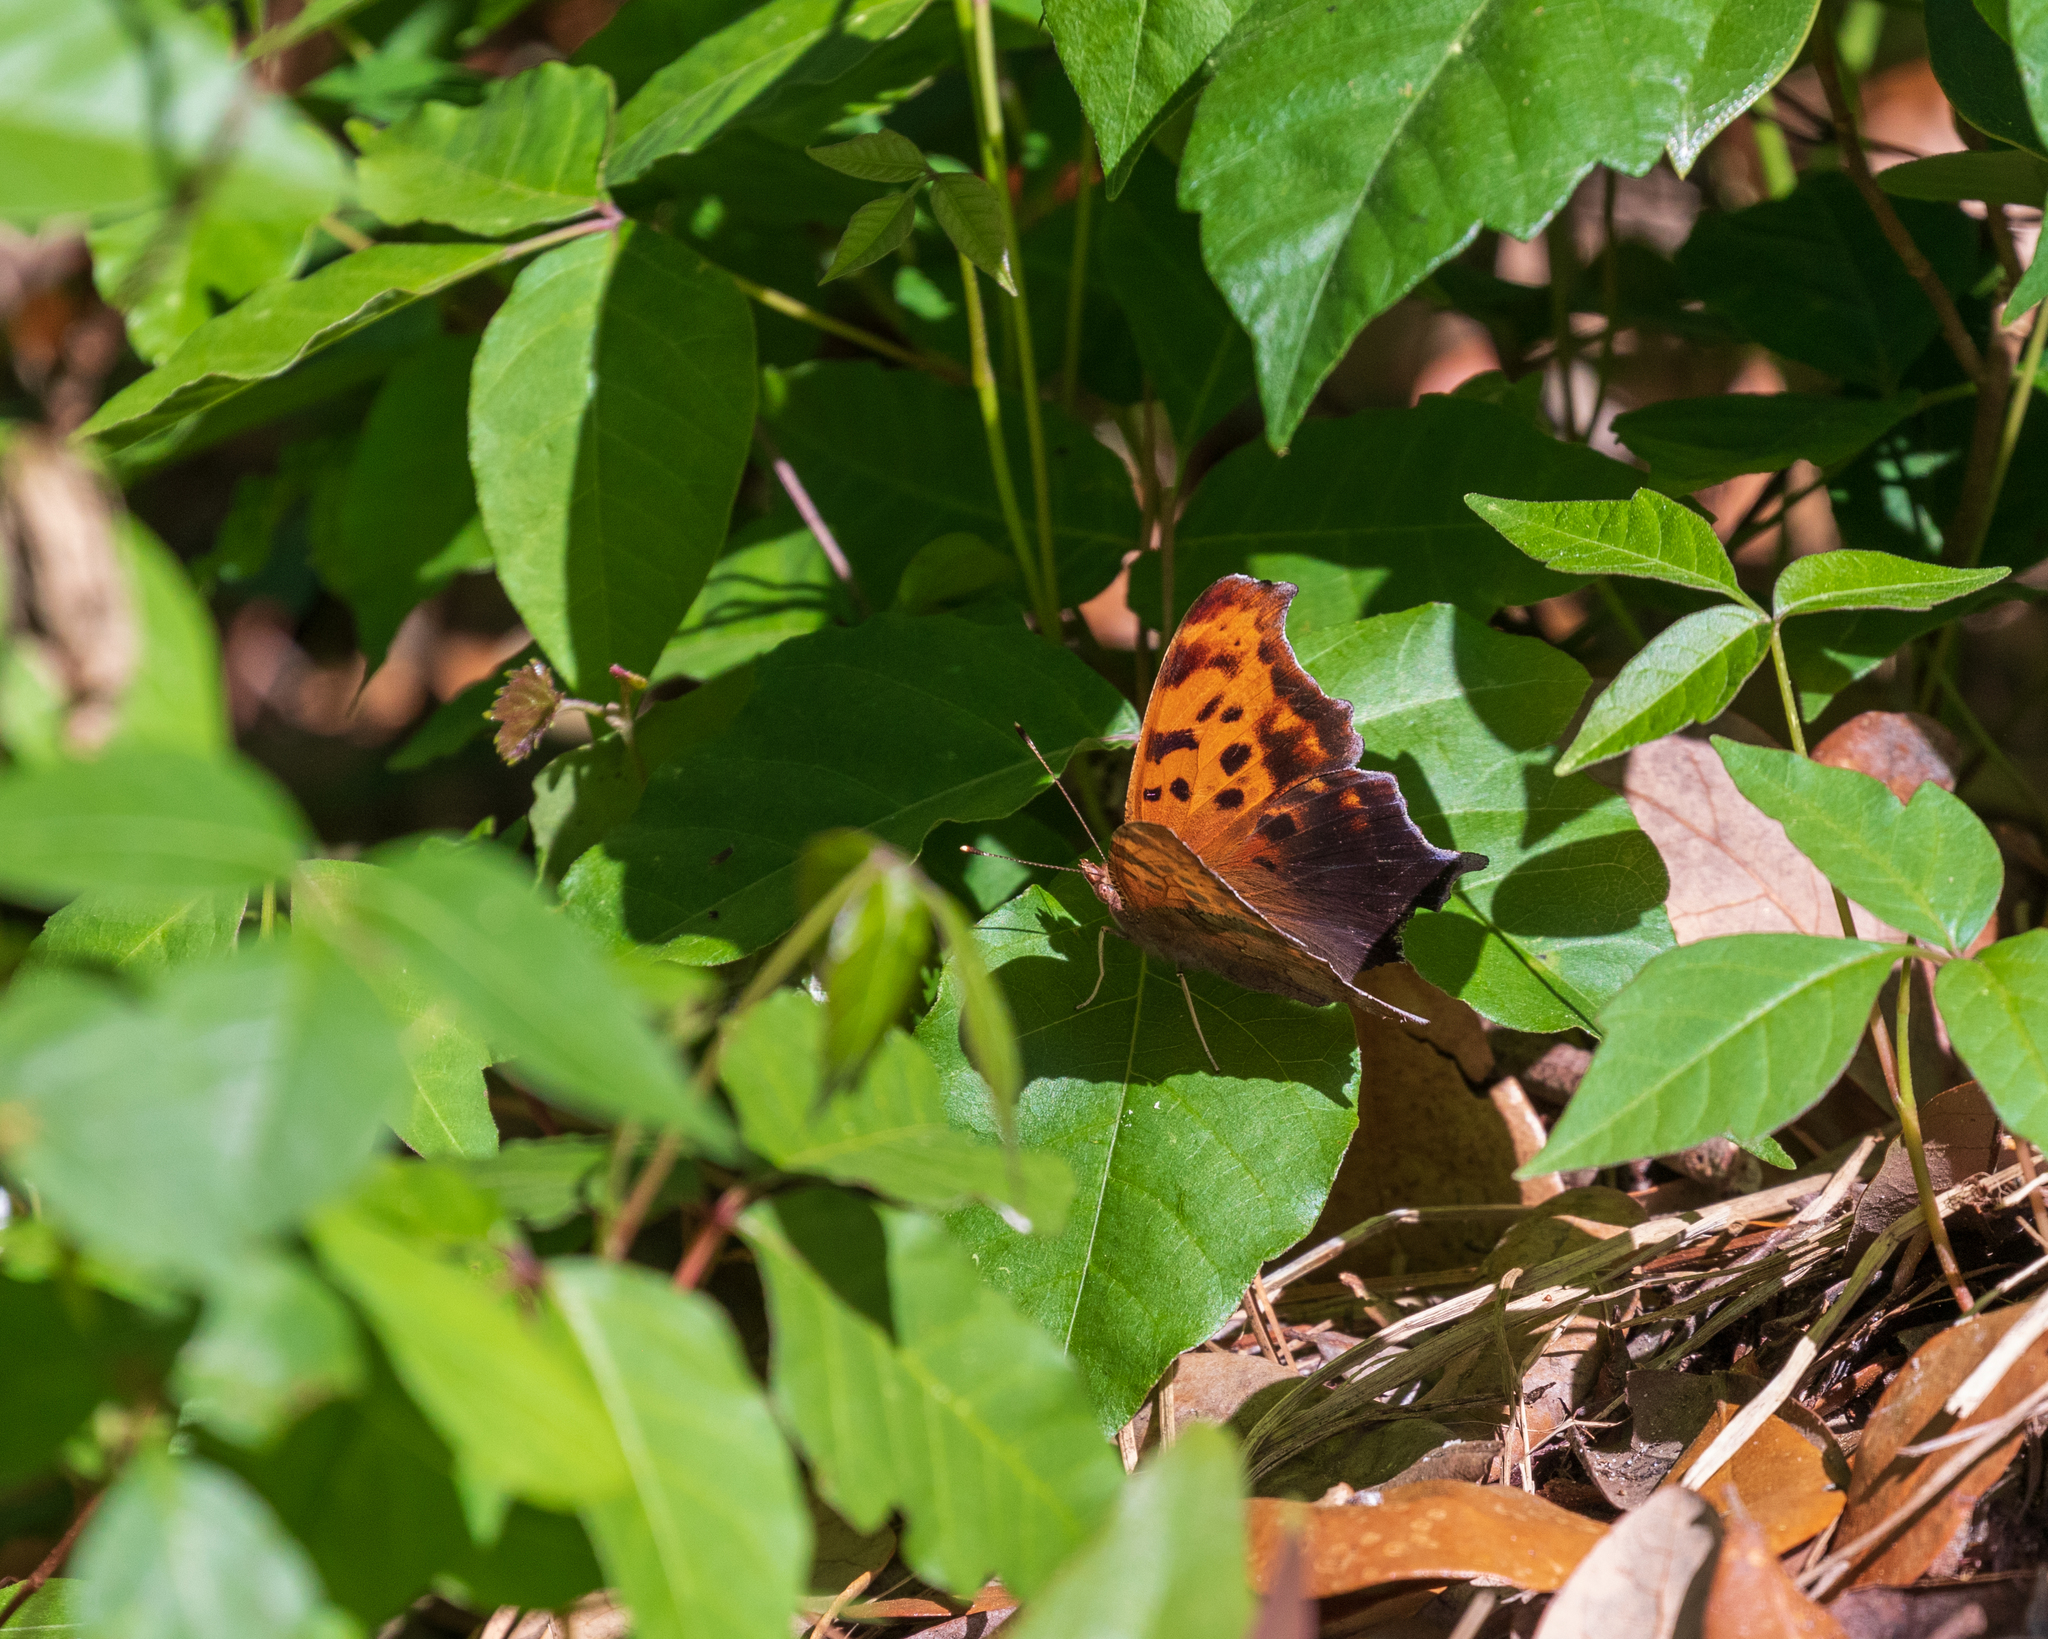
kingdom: Animalia
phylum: Arthropoda
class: Insecta
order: Lepidoptera
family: Nymphalidae
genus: Polygonia
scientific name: Polygonia interrogationis
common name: Question mark
